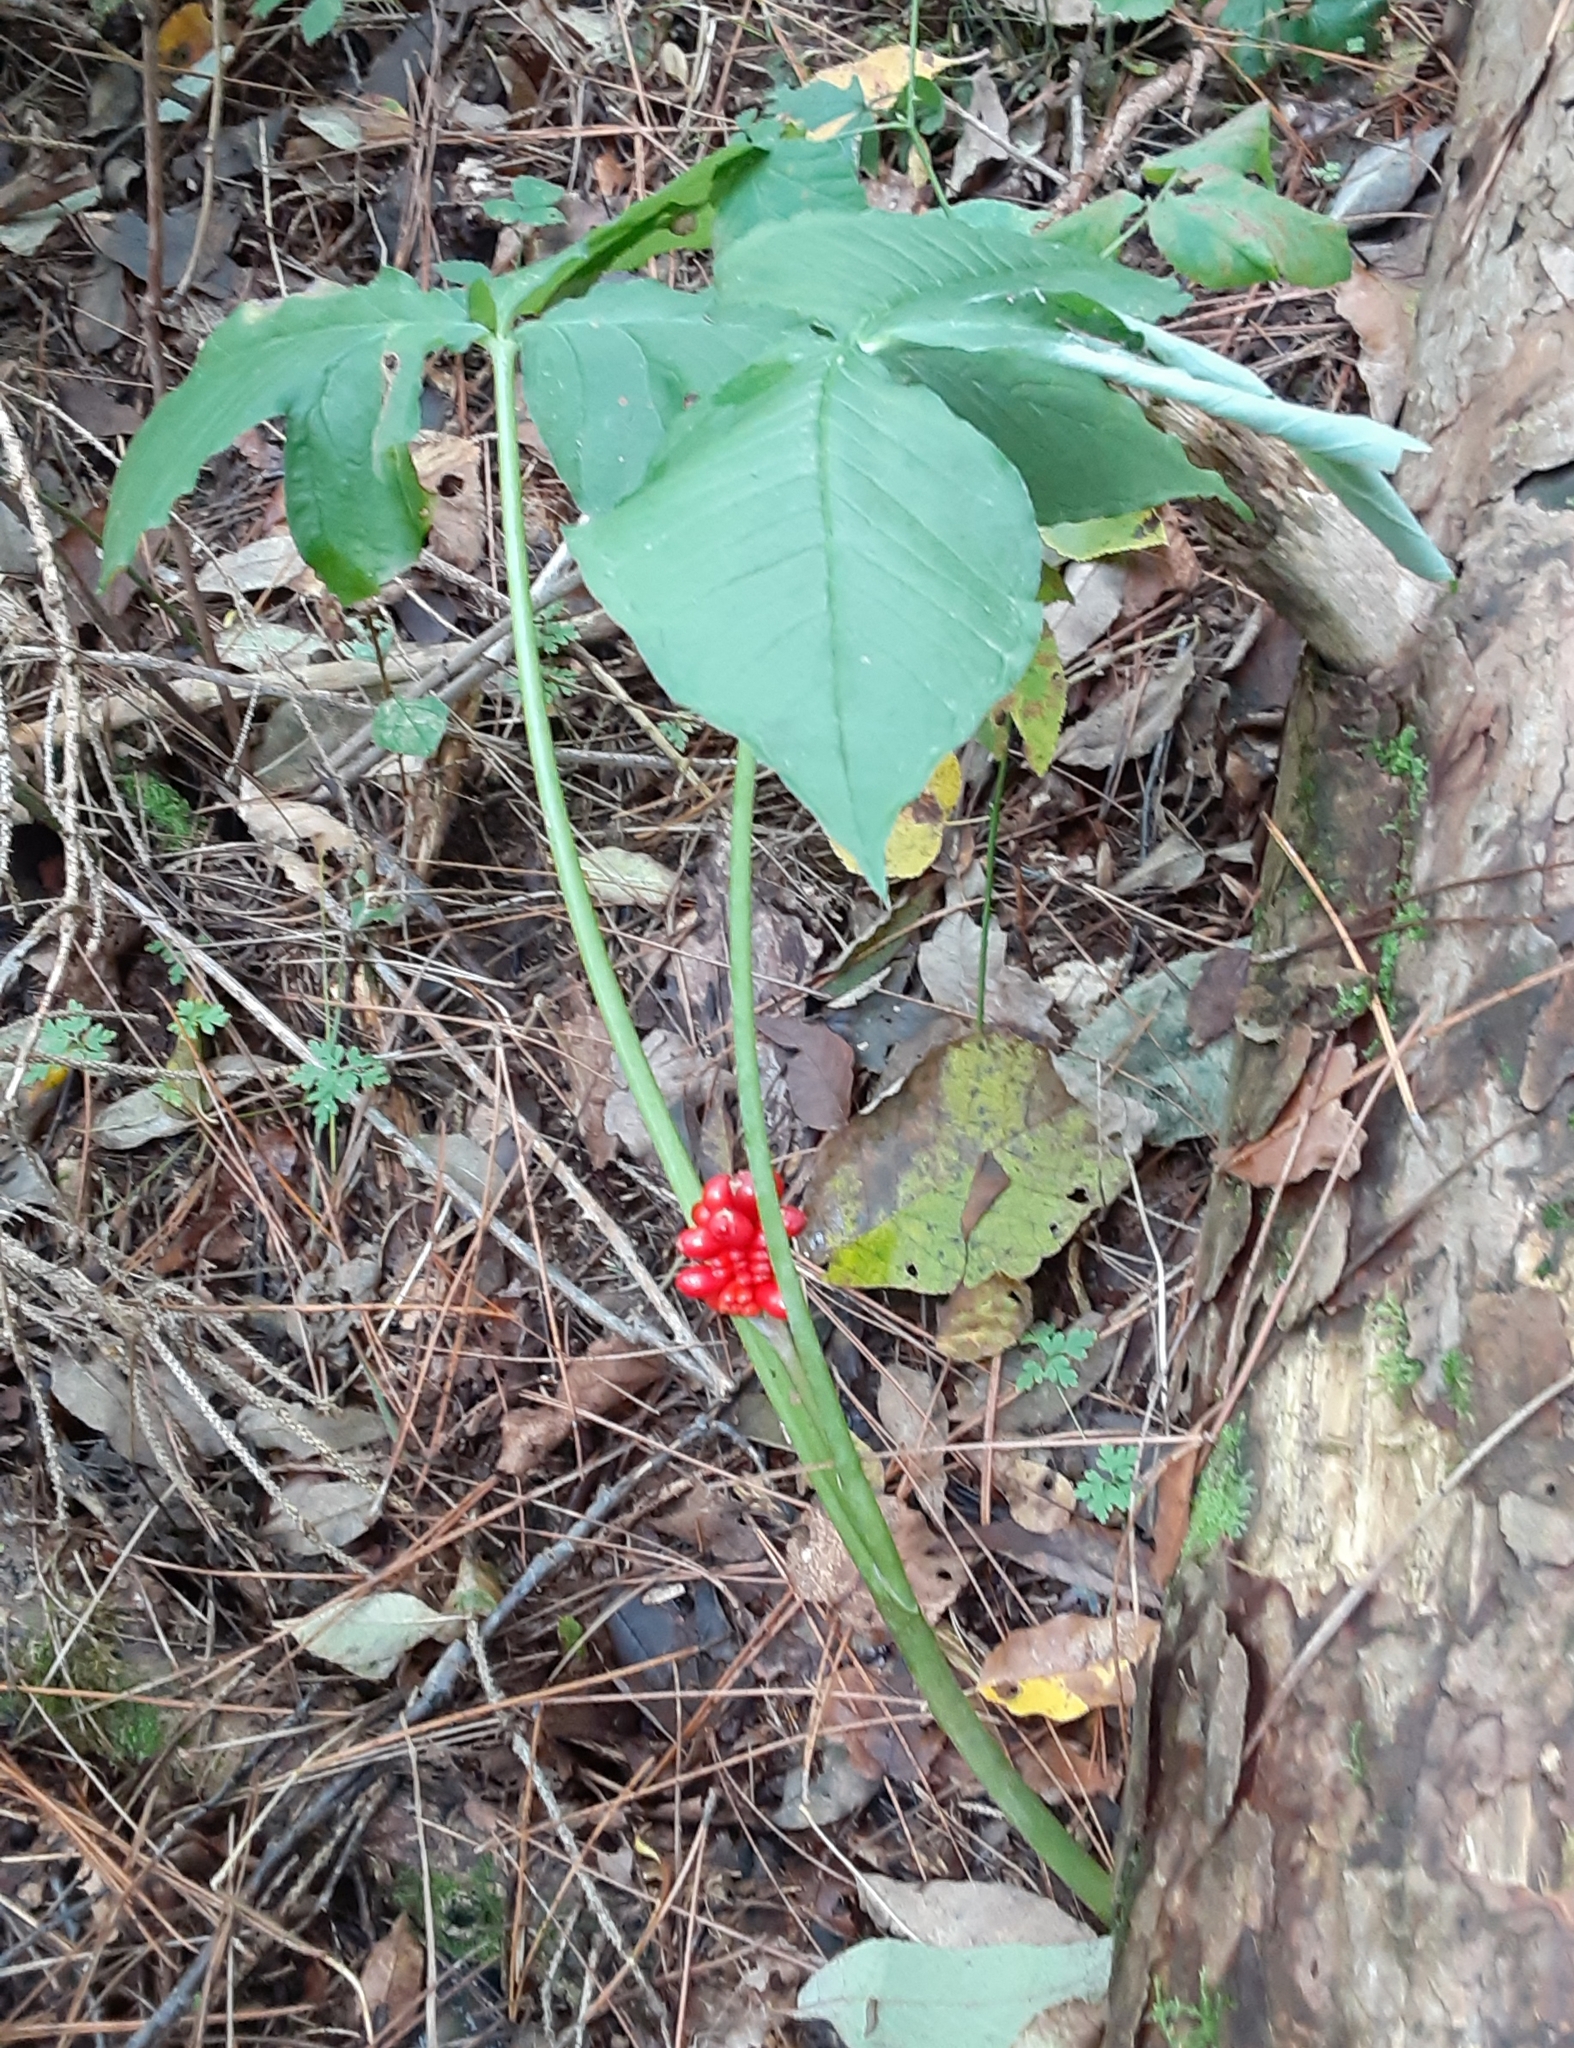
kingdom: Plantae
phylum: Tracheophyta
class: Liliopsida
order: Alismatales
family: Araceae
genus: Arisaema
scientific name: Arisaema triphyllum
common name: Jack-in-the-pulpit
